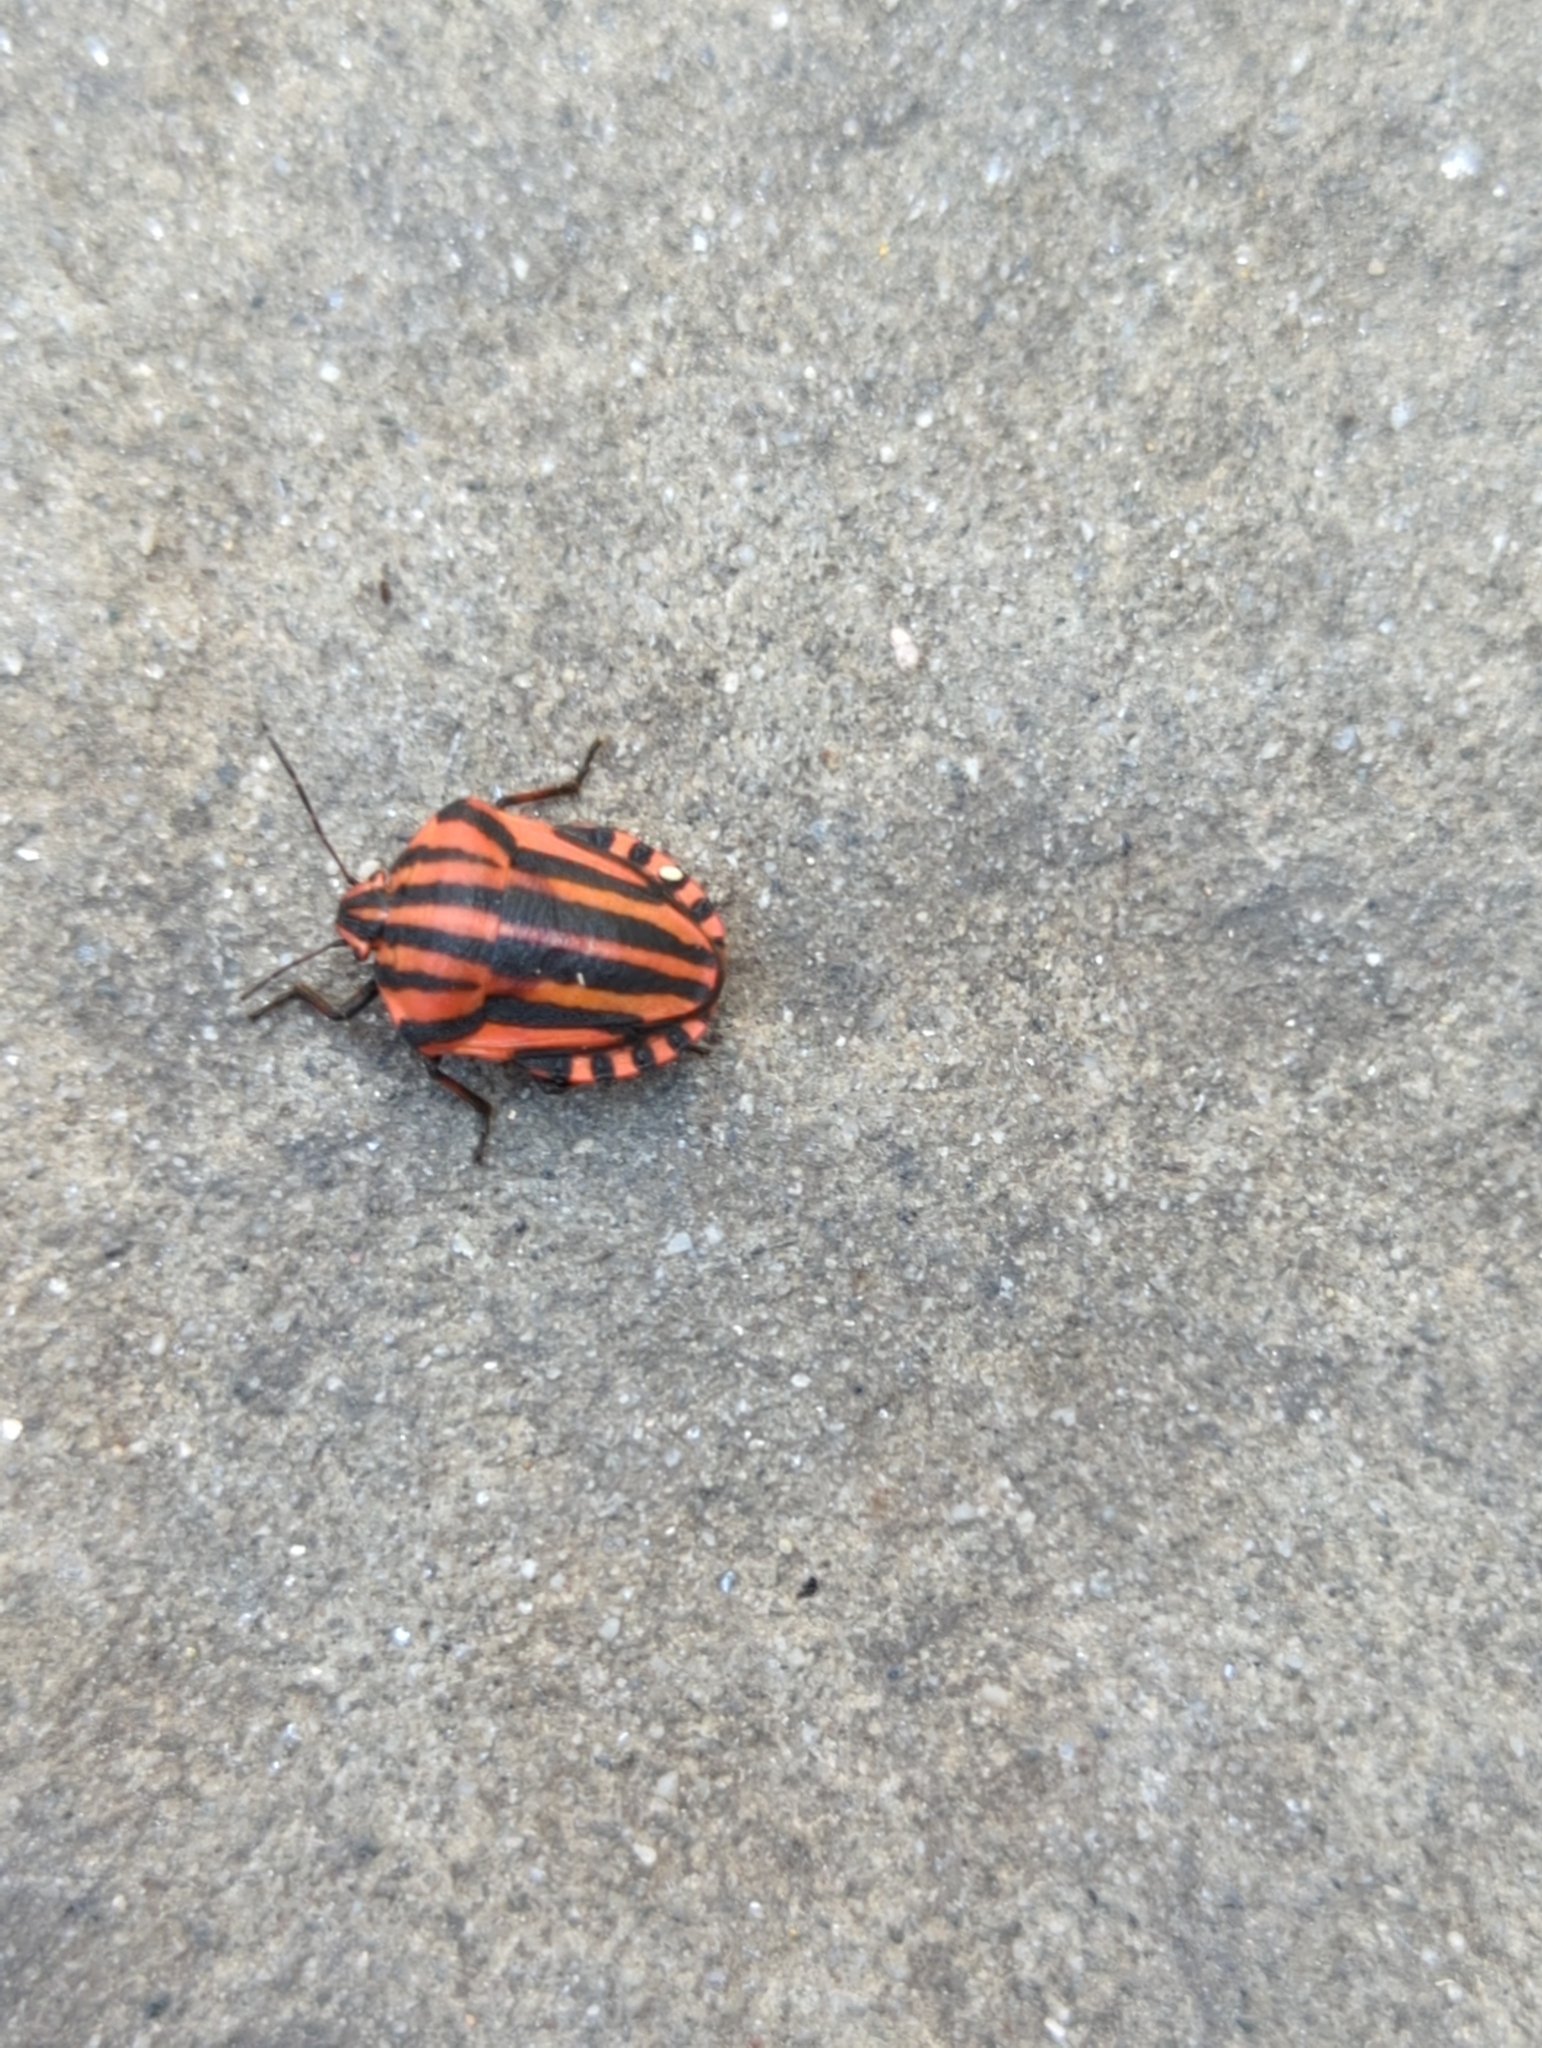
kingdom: Animalia
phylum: Arthropoda
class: Insecta
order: Hemiptera
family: Pentatomidae
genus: Graphosoma
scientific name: Graphosoma italicum
